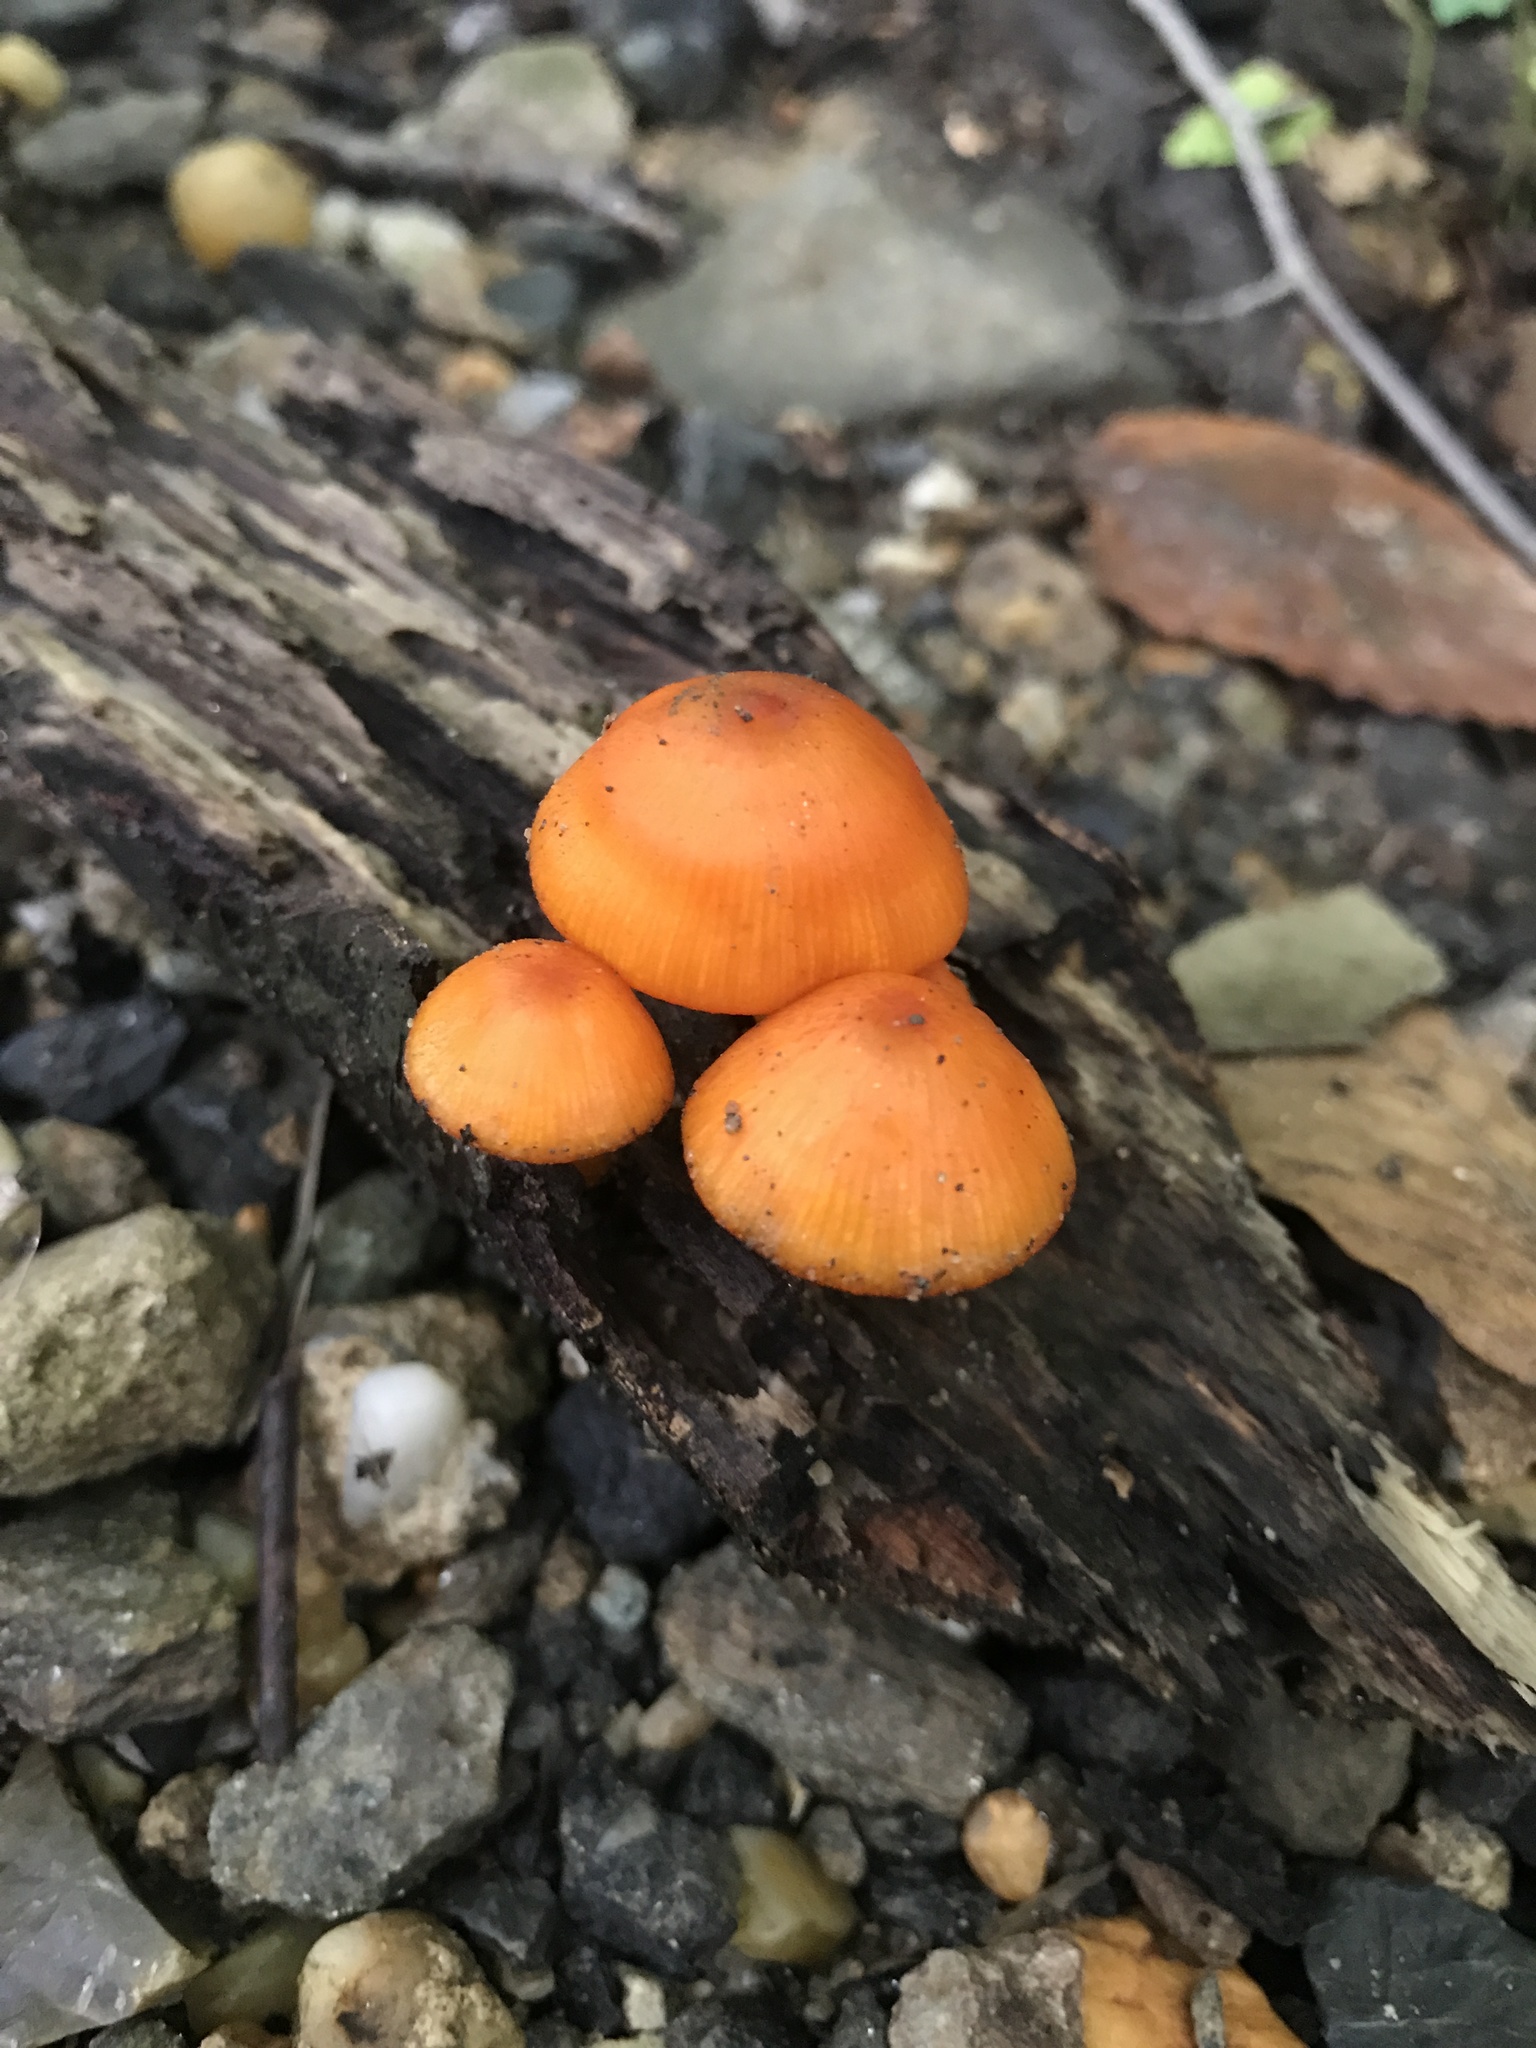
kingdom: Fungi
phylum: Basidiomycota
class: Agaricomycetes
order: Agaricales
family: Mycenaceae
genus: Mycena
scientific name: Mycena leaiana
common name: Orange mycena
